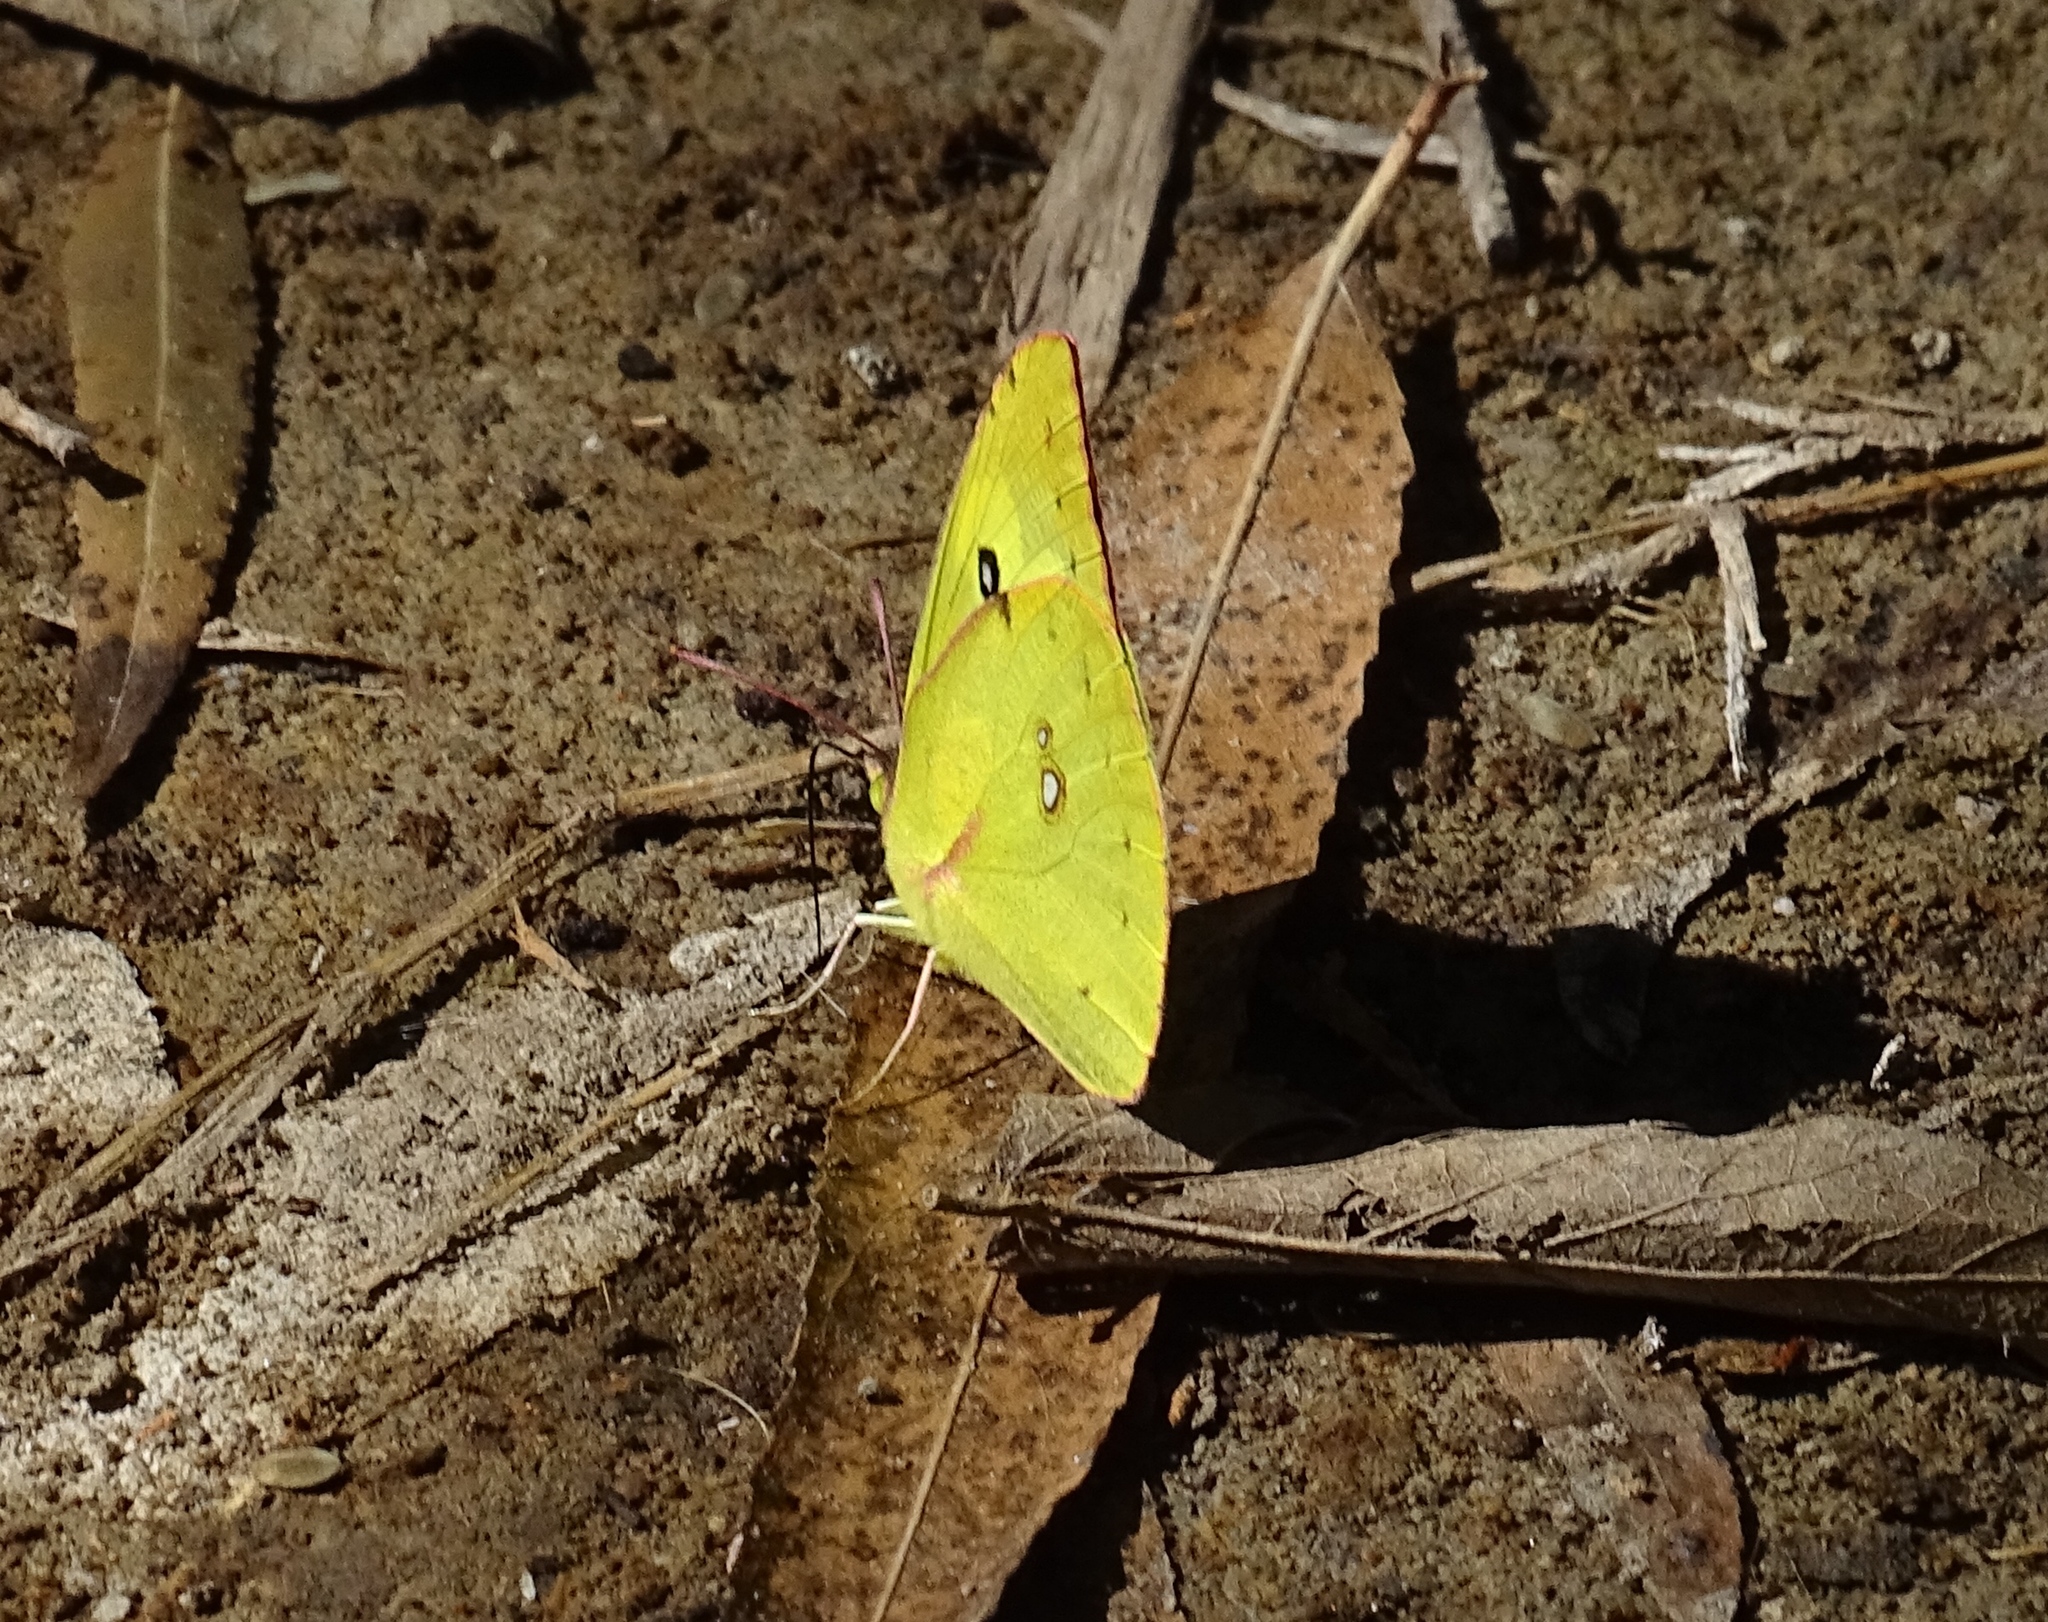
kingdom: Animalia
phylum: Arthropoda
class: Insecta
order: Lepidoptera
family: Pieridae
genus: Zerene
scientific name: Zerene cesonia
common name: Southern dogface
